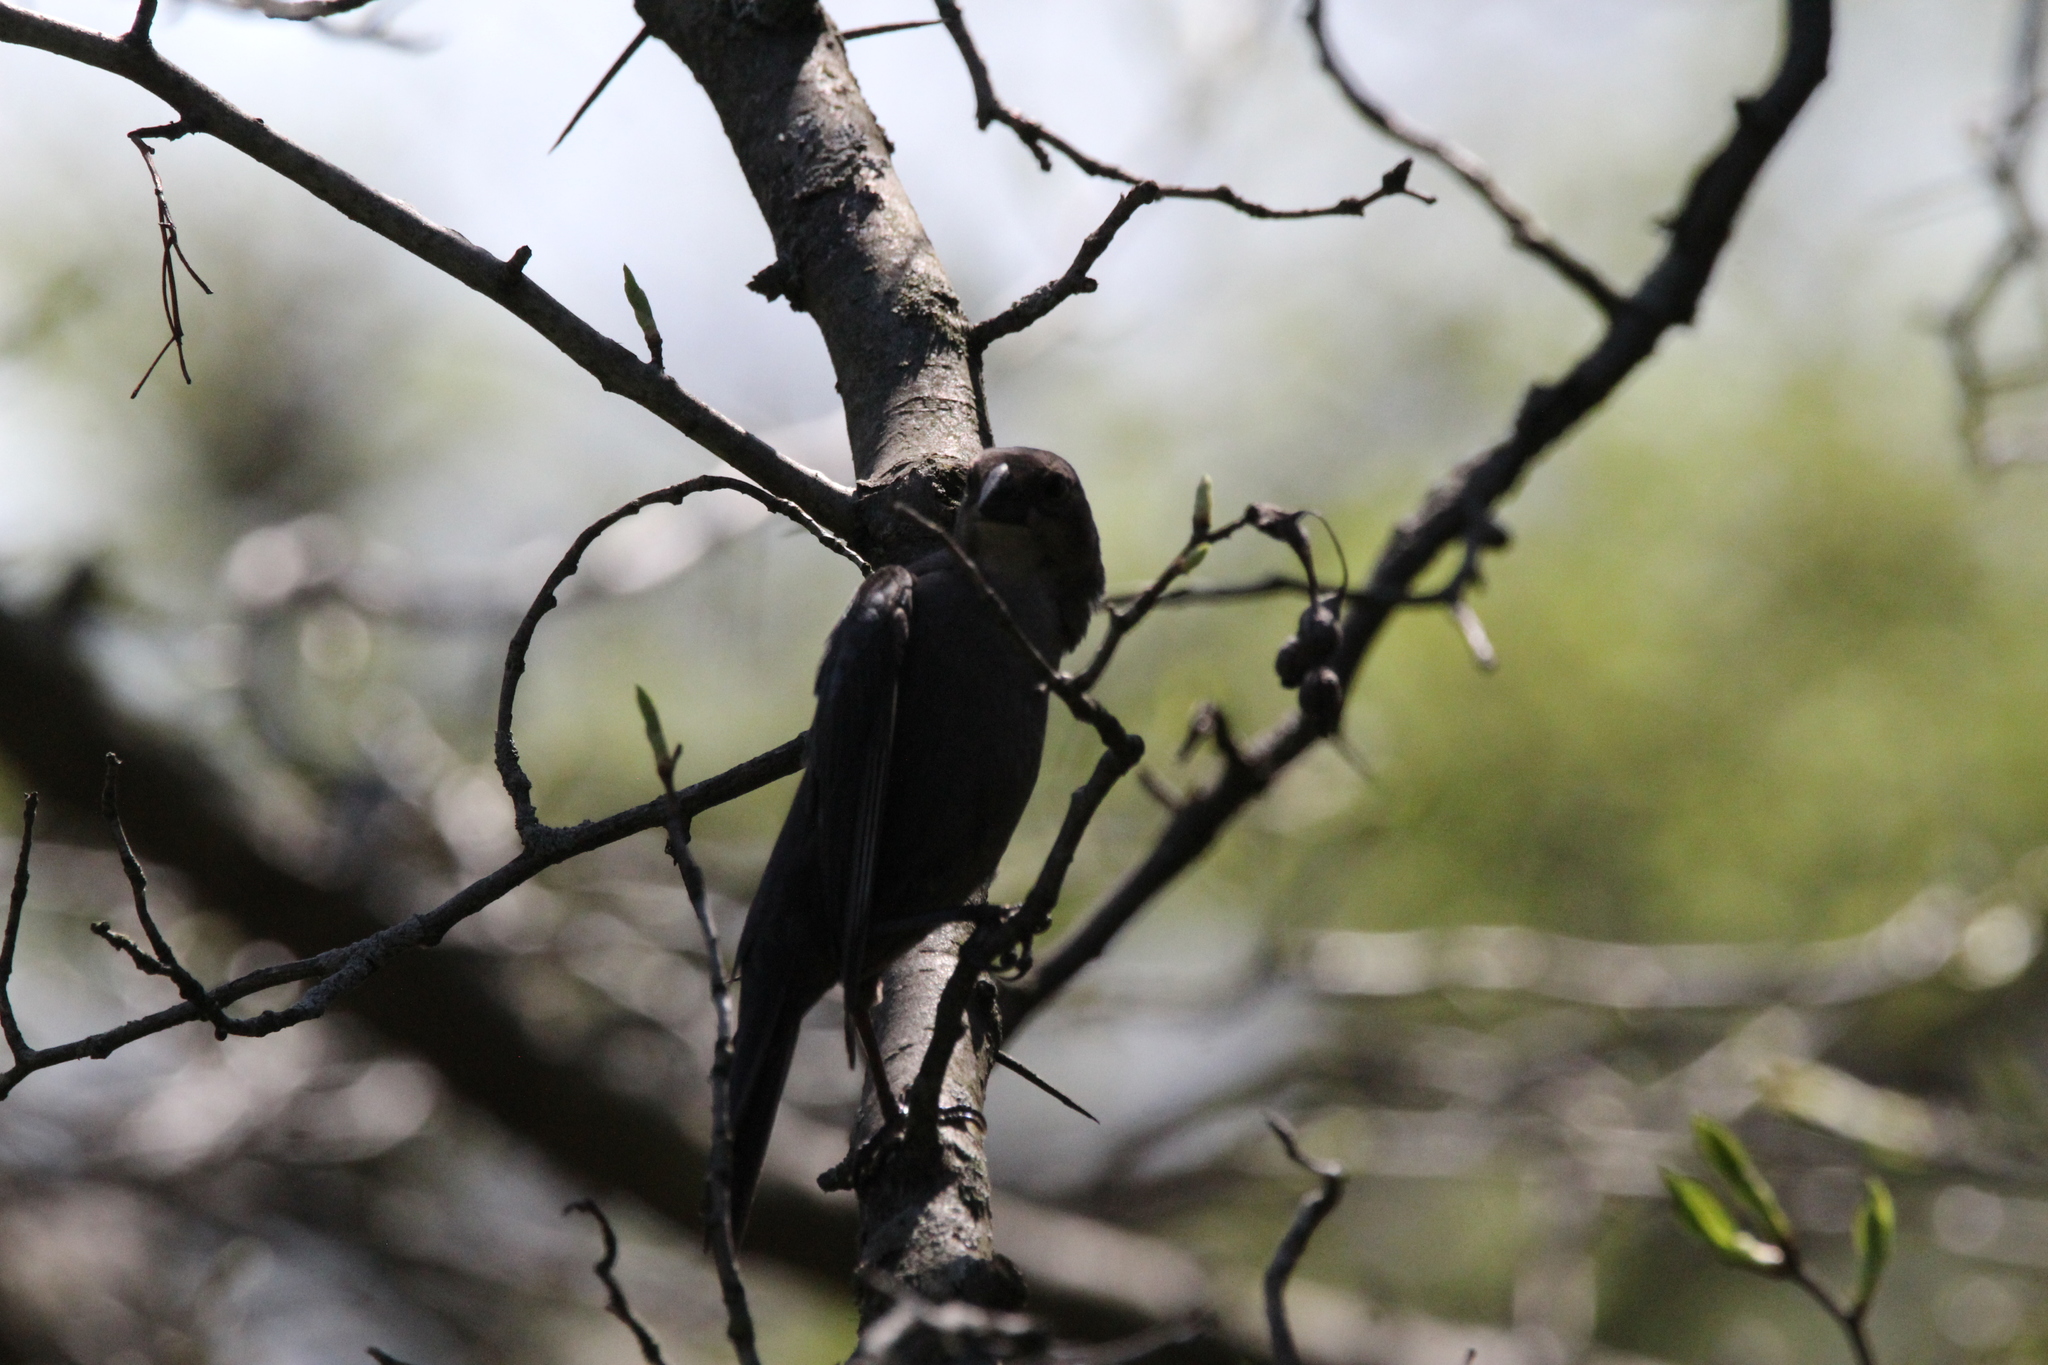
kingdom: Animalia
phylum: Chordata
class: Aves
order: Passeriformes
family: Icteridae
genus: Molothrus
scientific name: Molothrus ater
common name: Brown-headed cowbird
